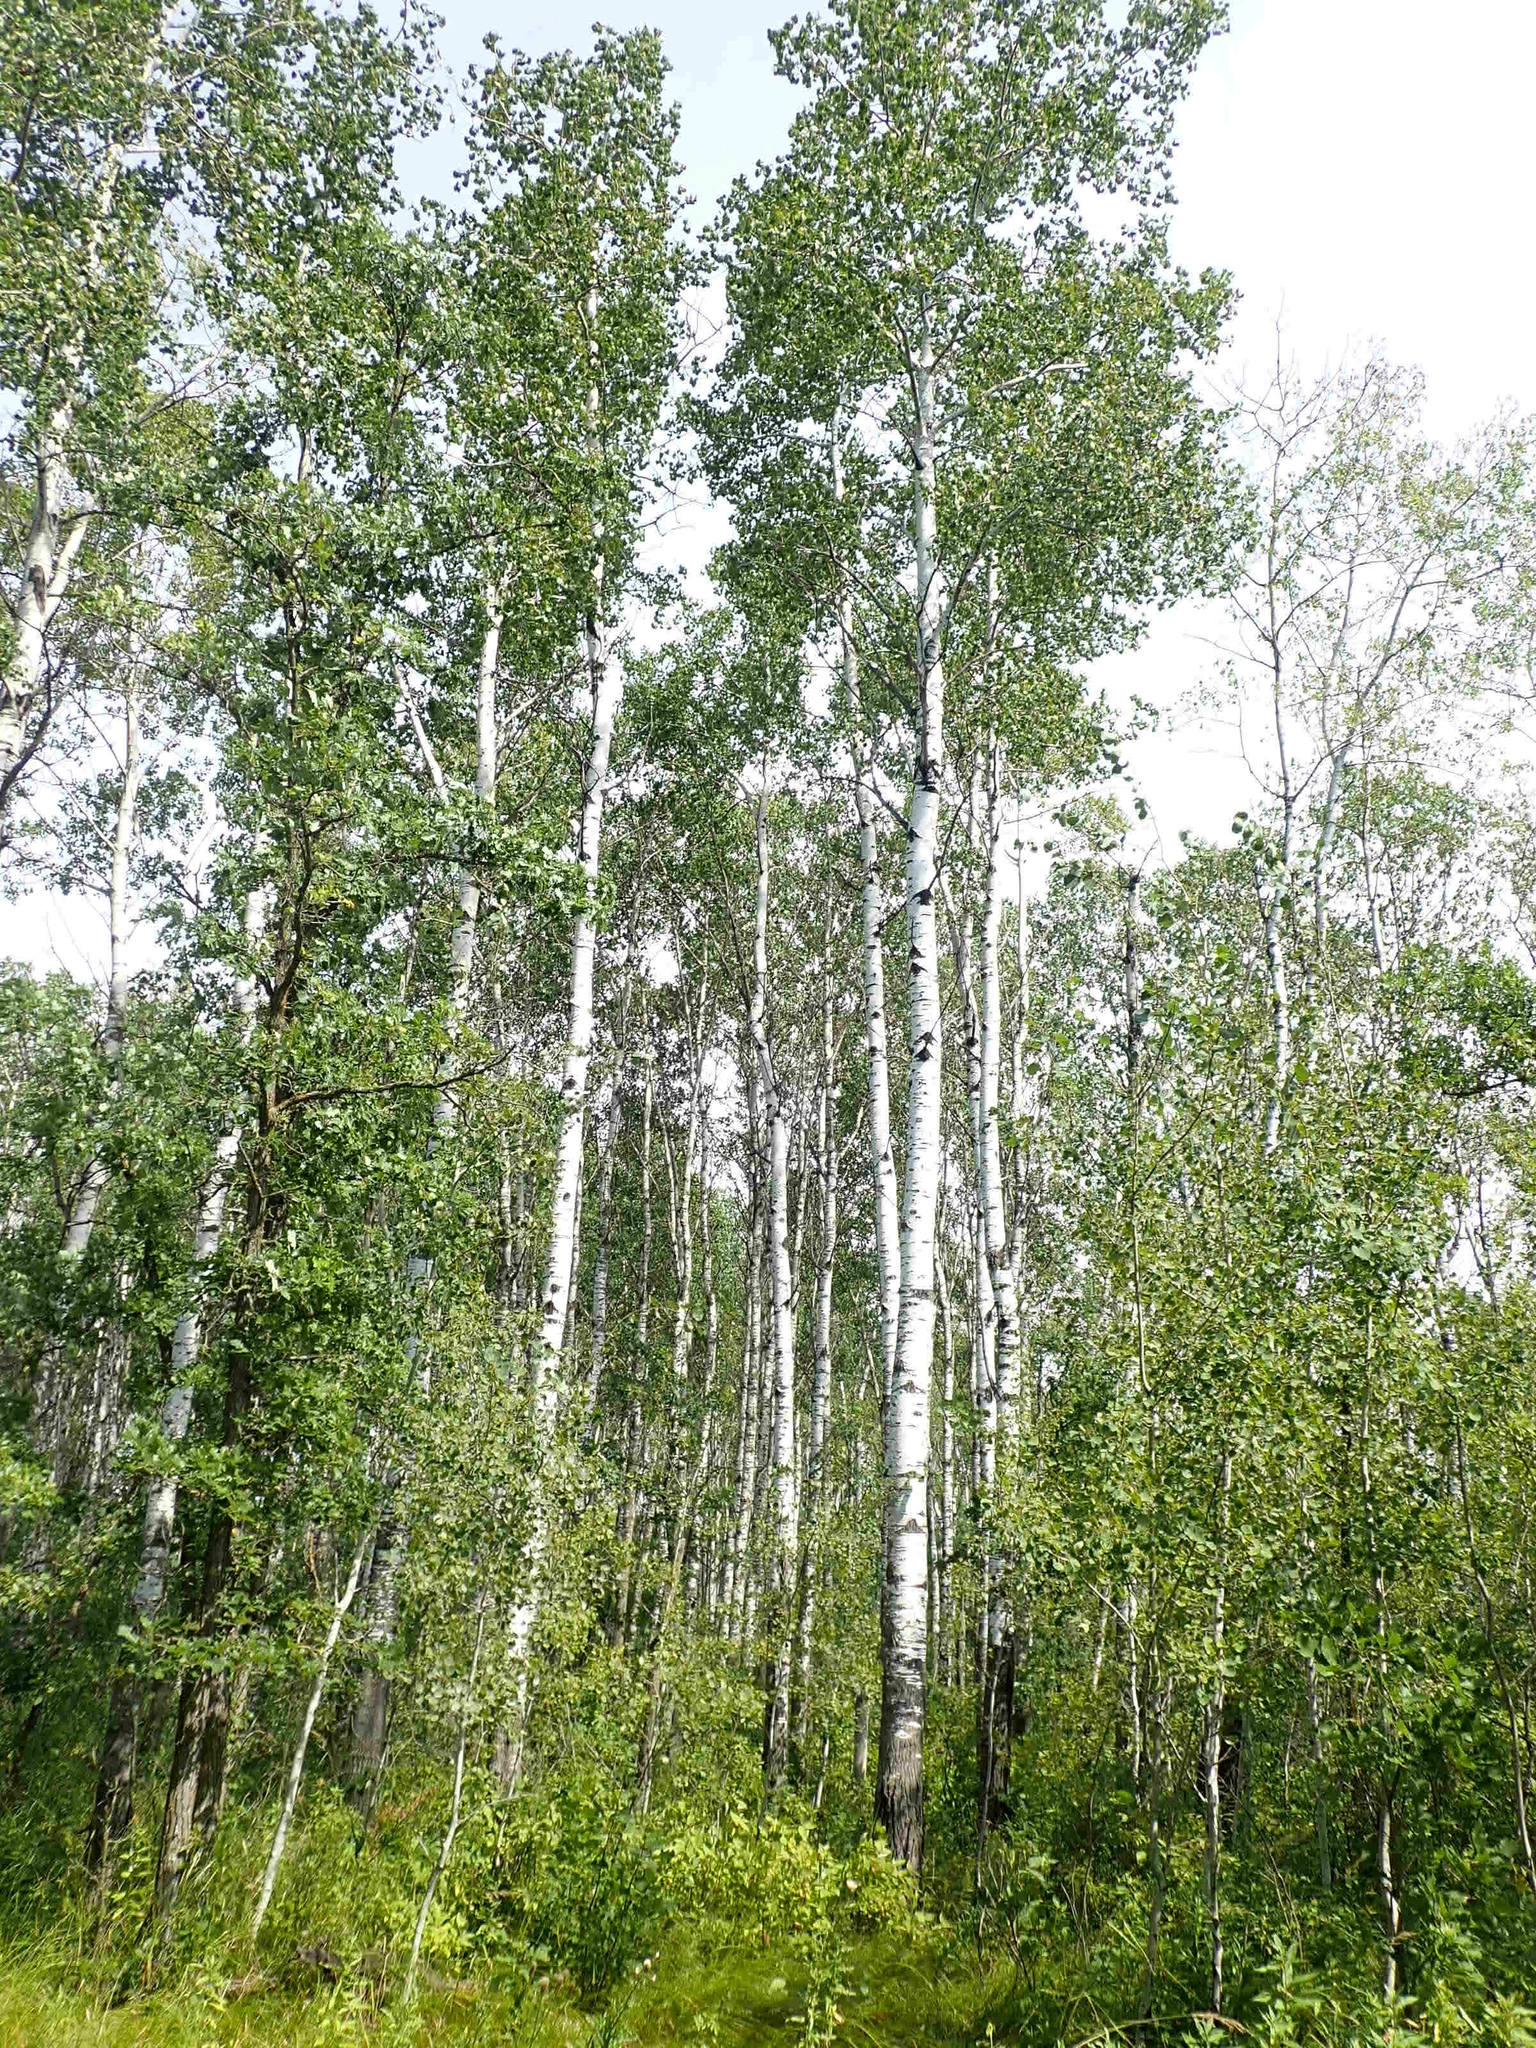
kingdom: Plantae
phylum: Tracheophyta
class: Magnoliopsida
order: Malpighiales
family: Salicaceae
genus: Populus
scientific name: Populus tremuloides
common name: Quaking aspen
